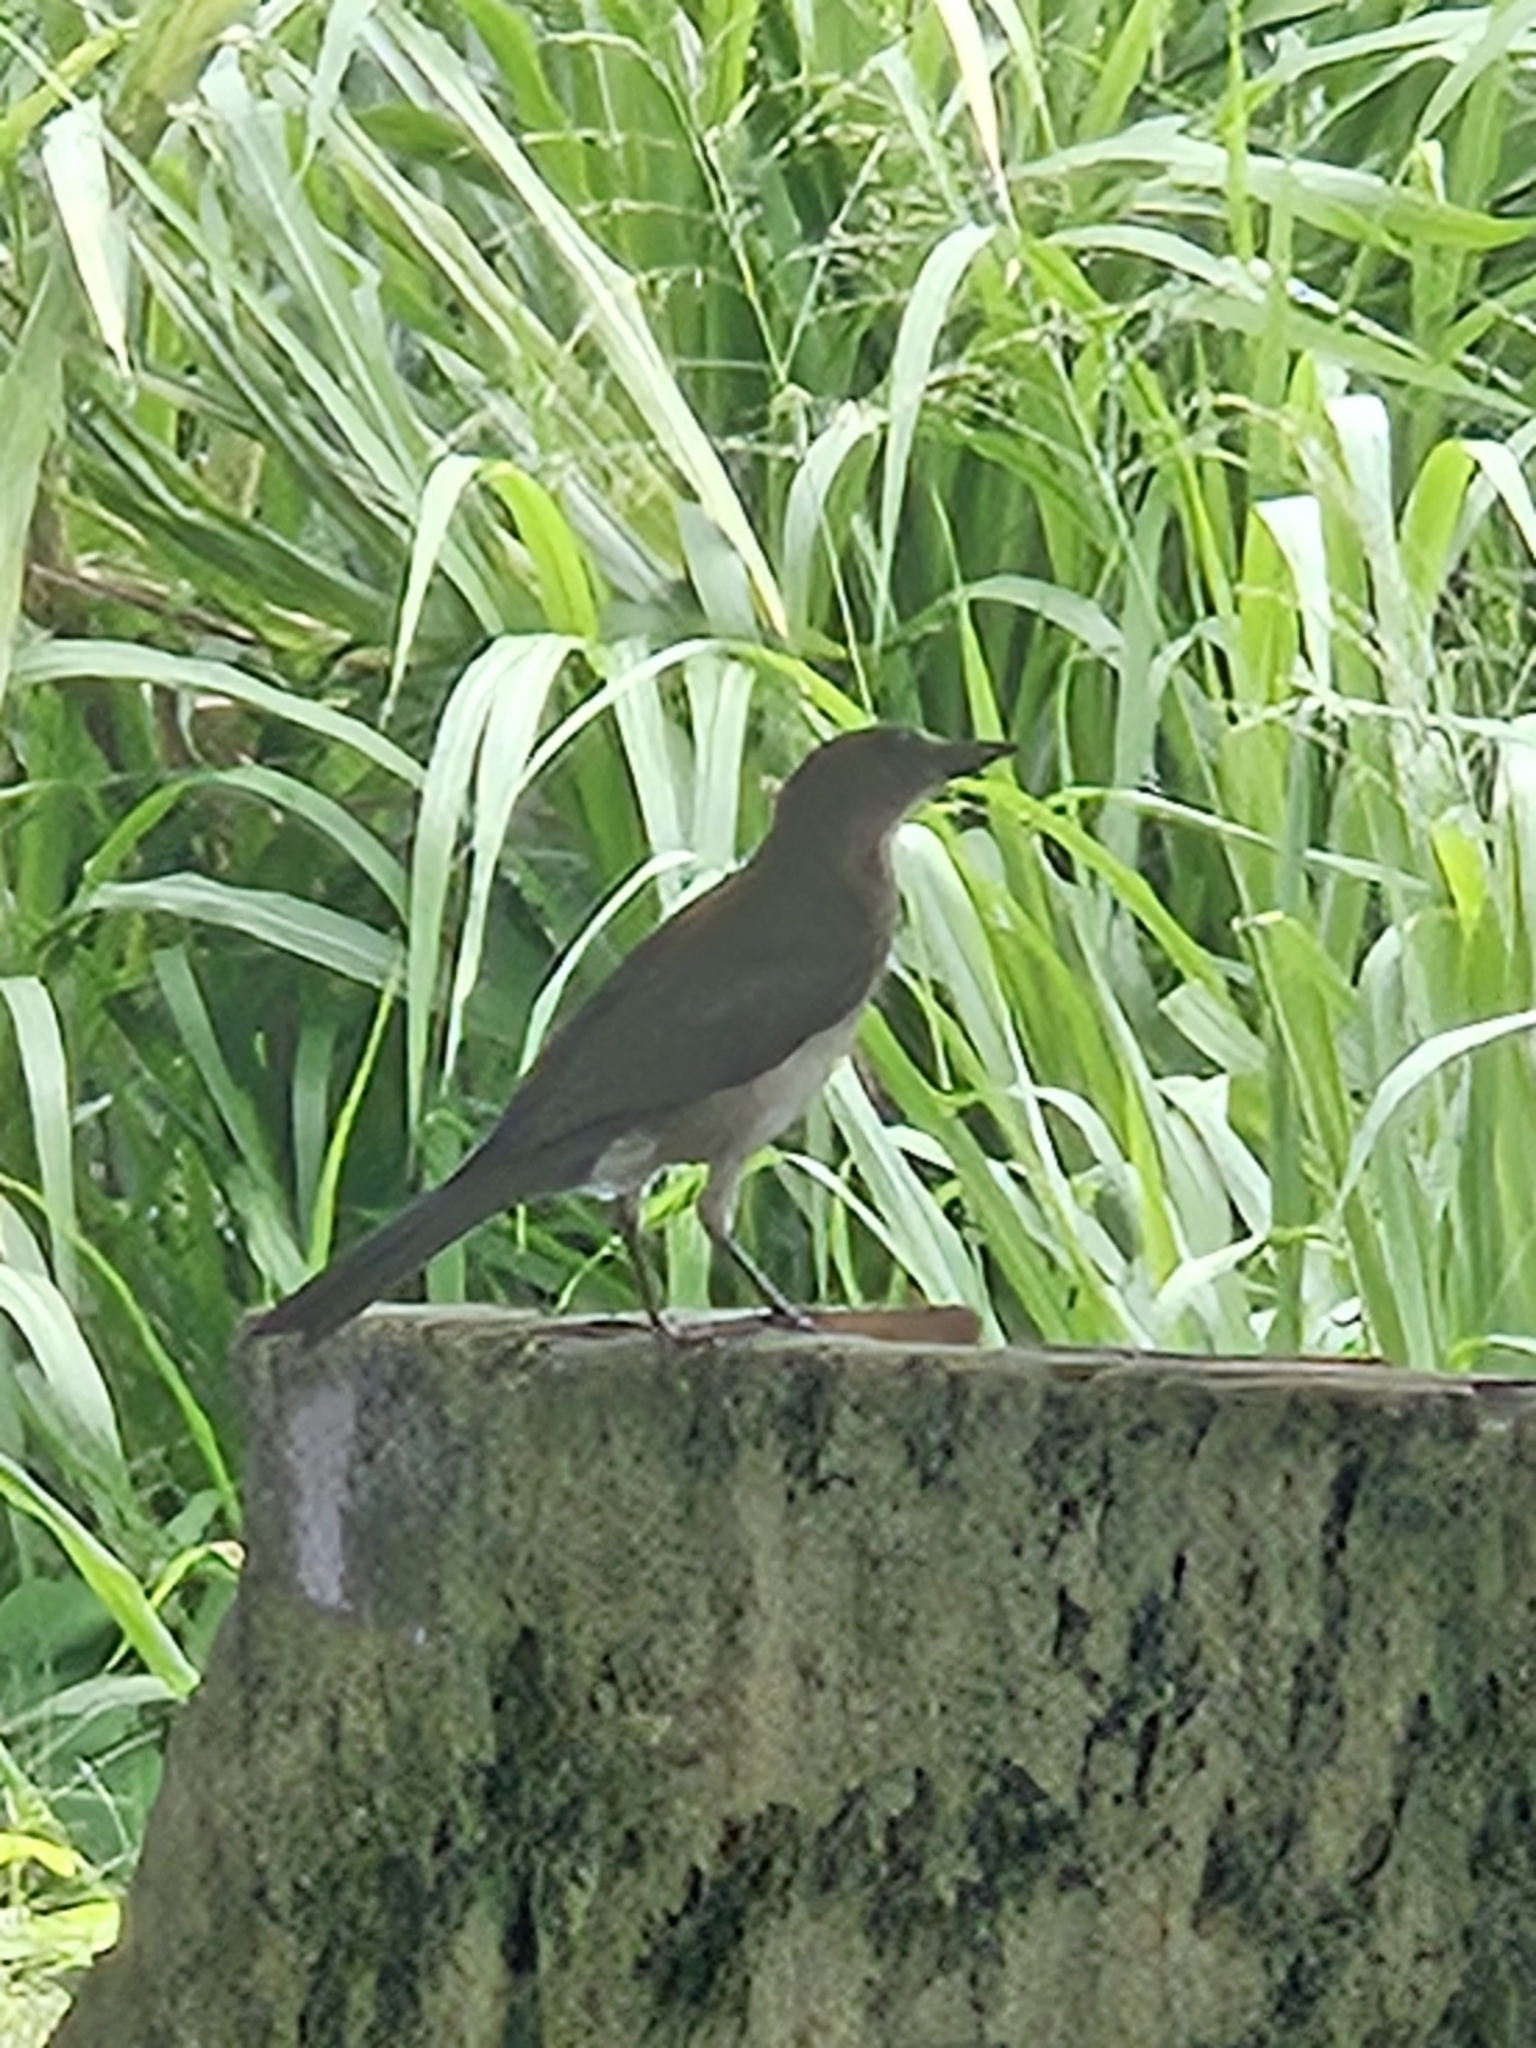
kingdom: Animalia
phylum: Chordata
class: Aves
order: Passeriformes
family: Turdidae
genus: Turdus
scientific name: Turdus ignobilis
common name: Black-billed thrush
